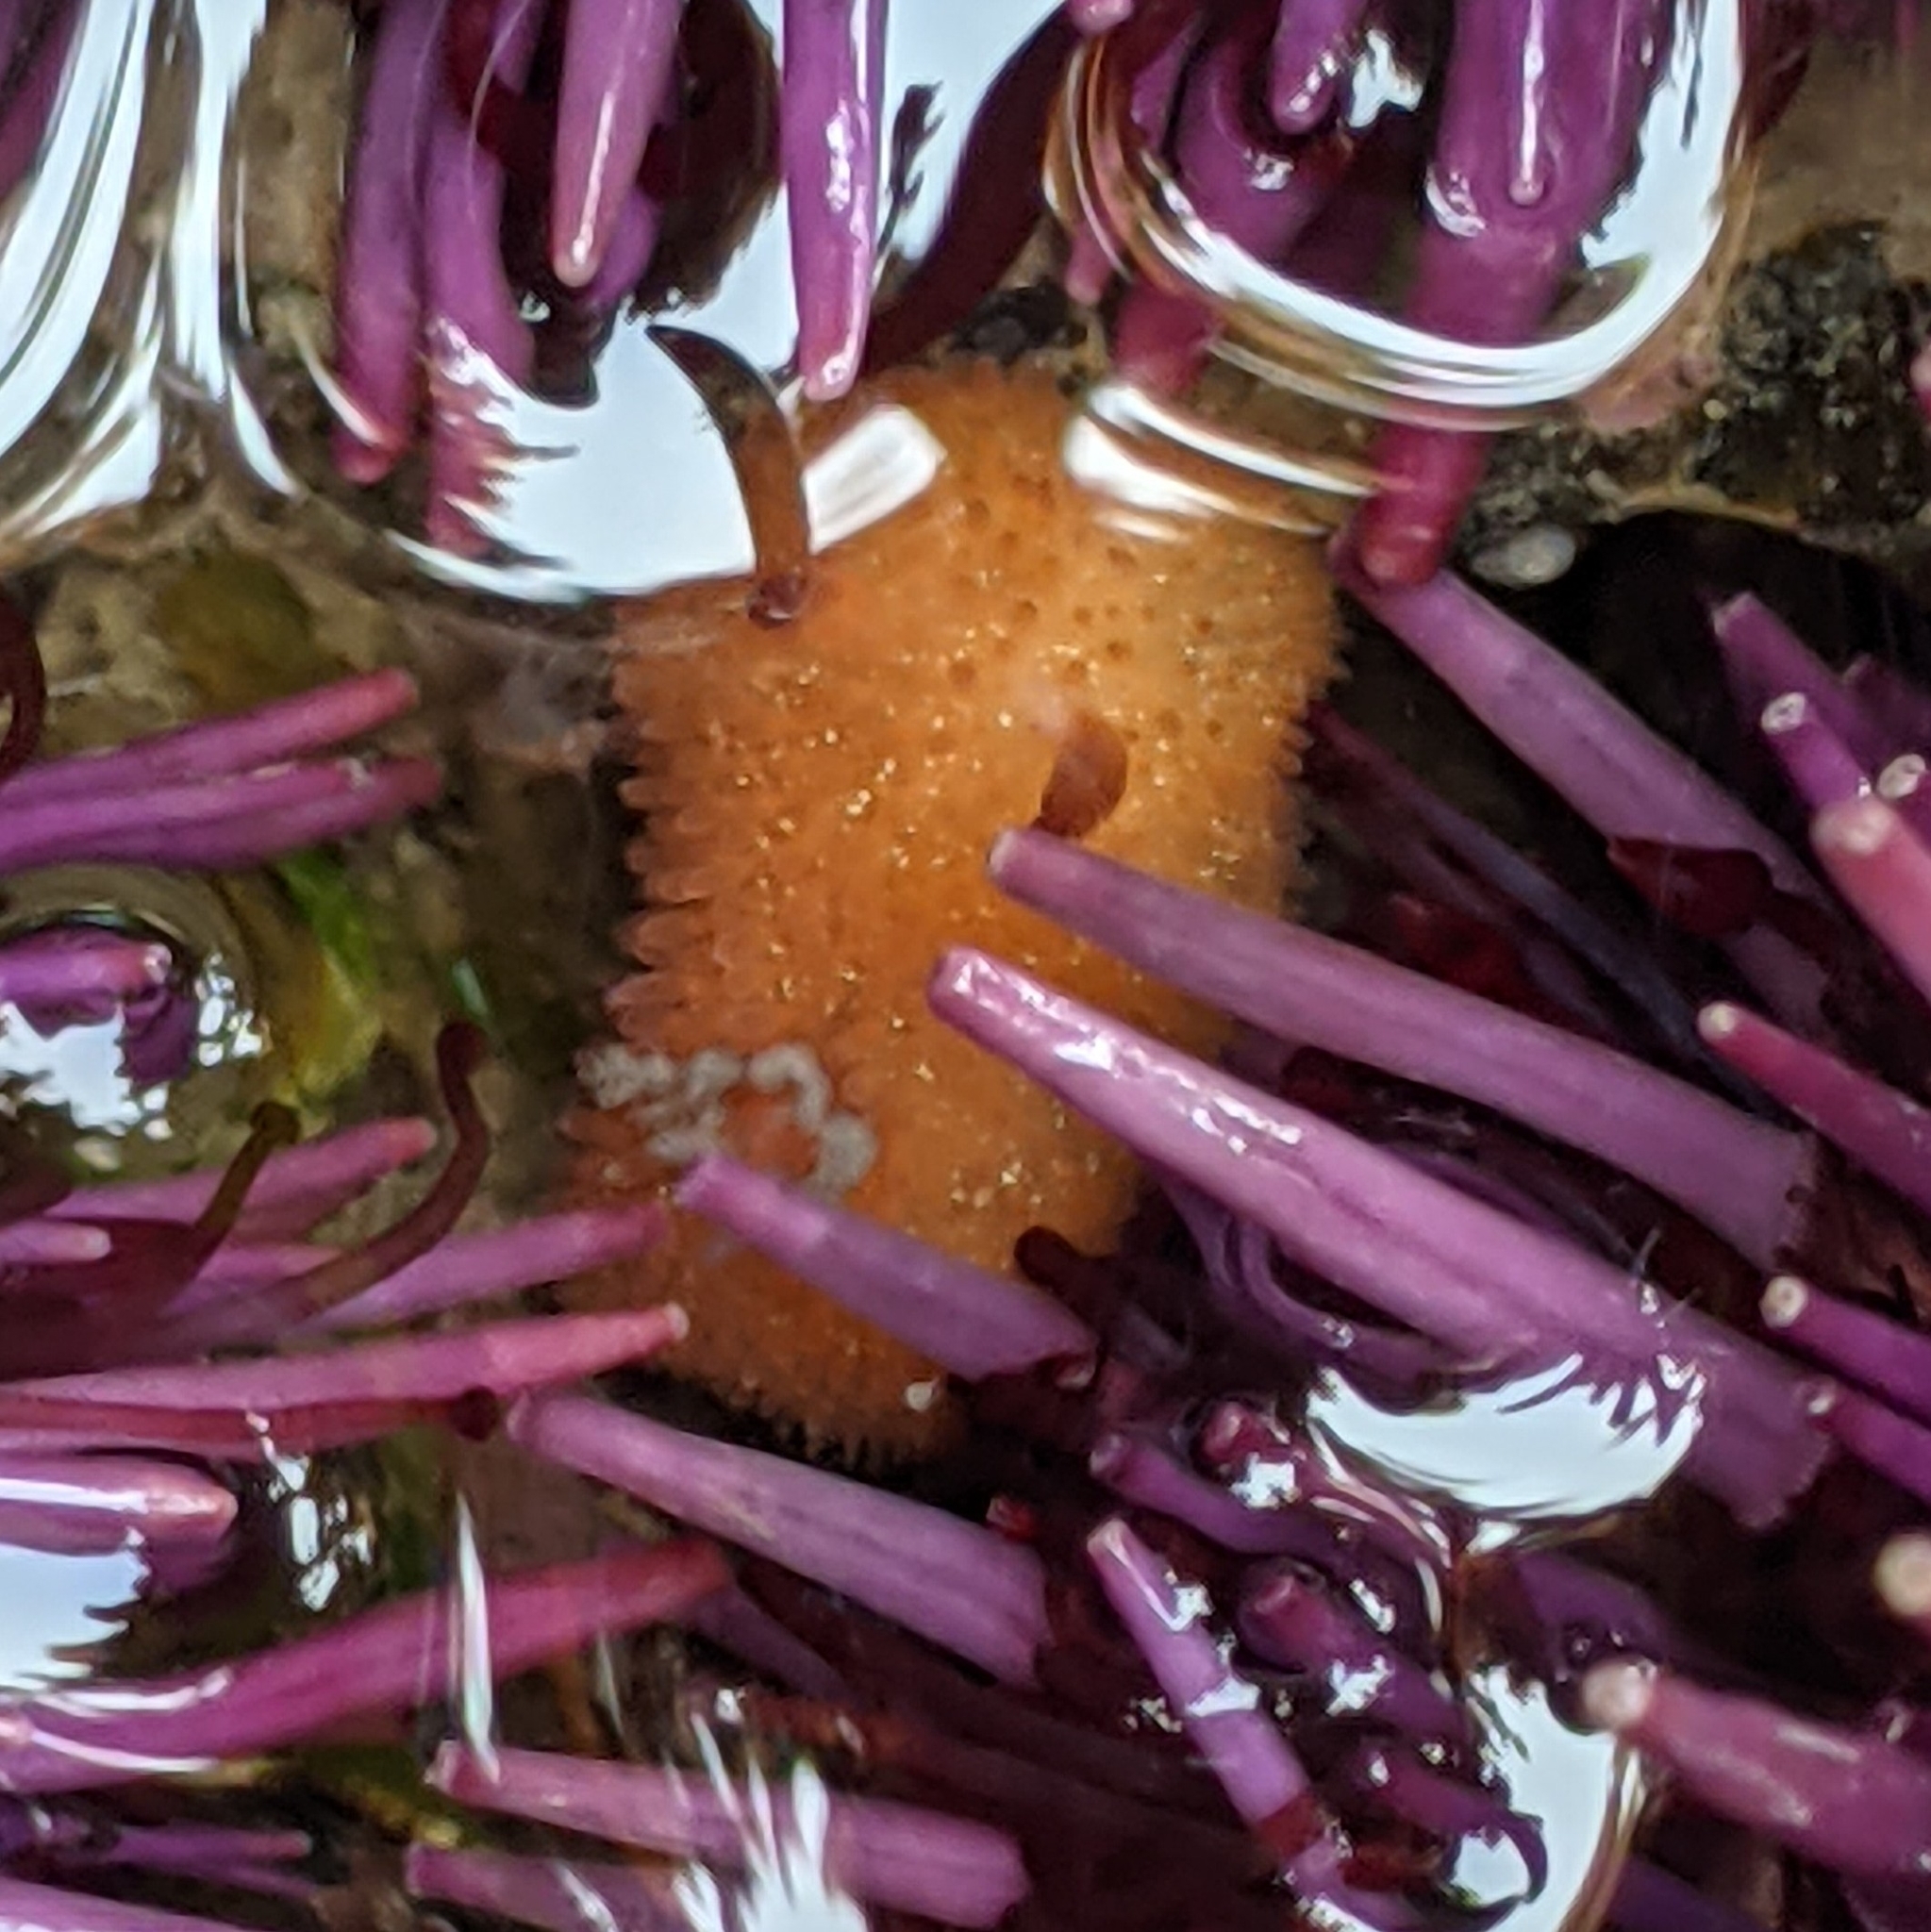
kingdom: Animalia
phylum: Mollusca
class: Gastropoda
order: Nudibranchia
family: Onchidorididae
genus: Acanthodoris
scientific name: Acanthodoris lutea
